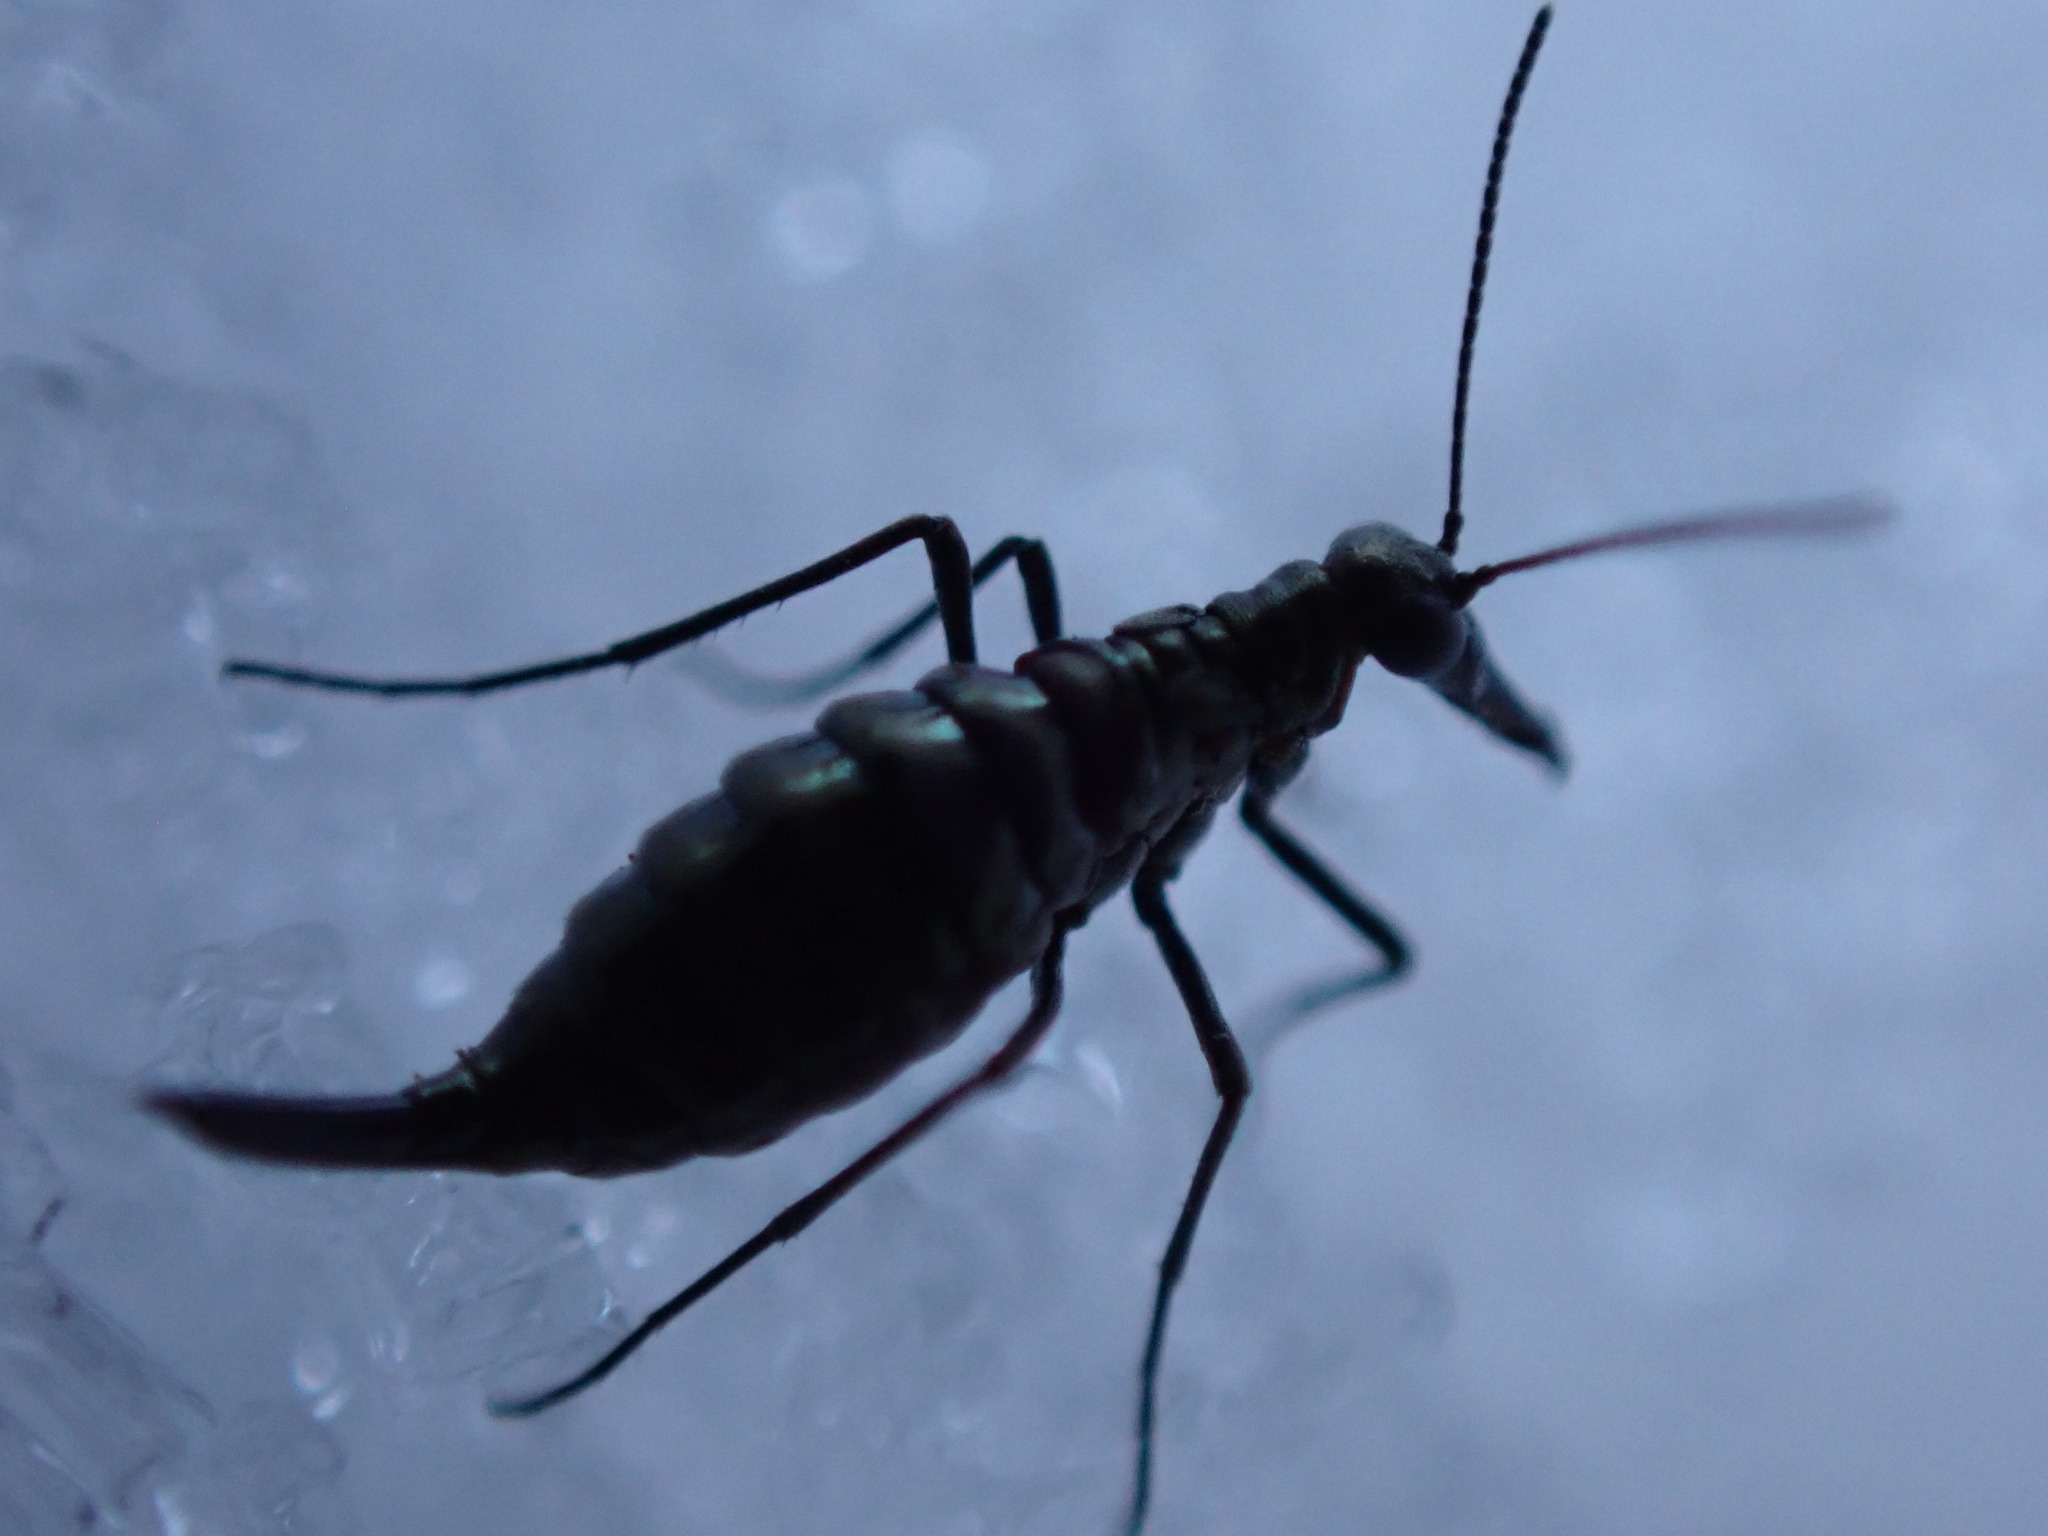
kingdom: Animalia
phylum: Arthropoda
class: Insecta
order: Mecoptera
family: Boreidae
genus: Boreus
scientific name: Boreus coloradensis
